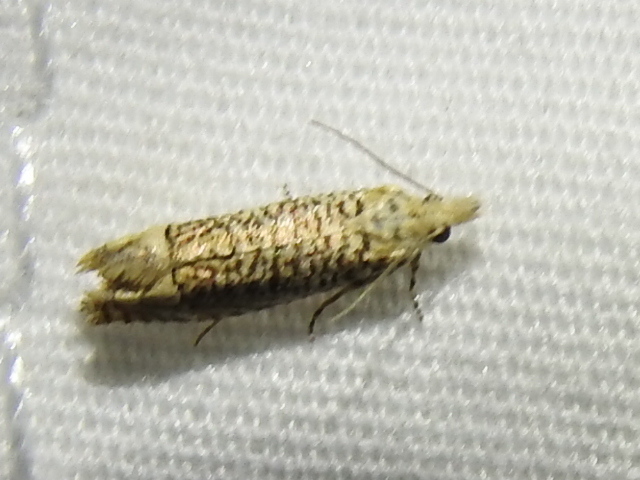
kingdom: Animalia
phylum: Arthropoda
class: Insecta
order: Lepidoptera
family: Tortricidae
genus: Eucosma
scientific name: Eucosma argutipunctana
